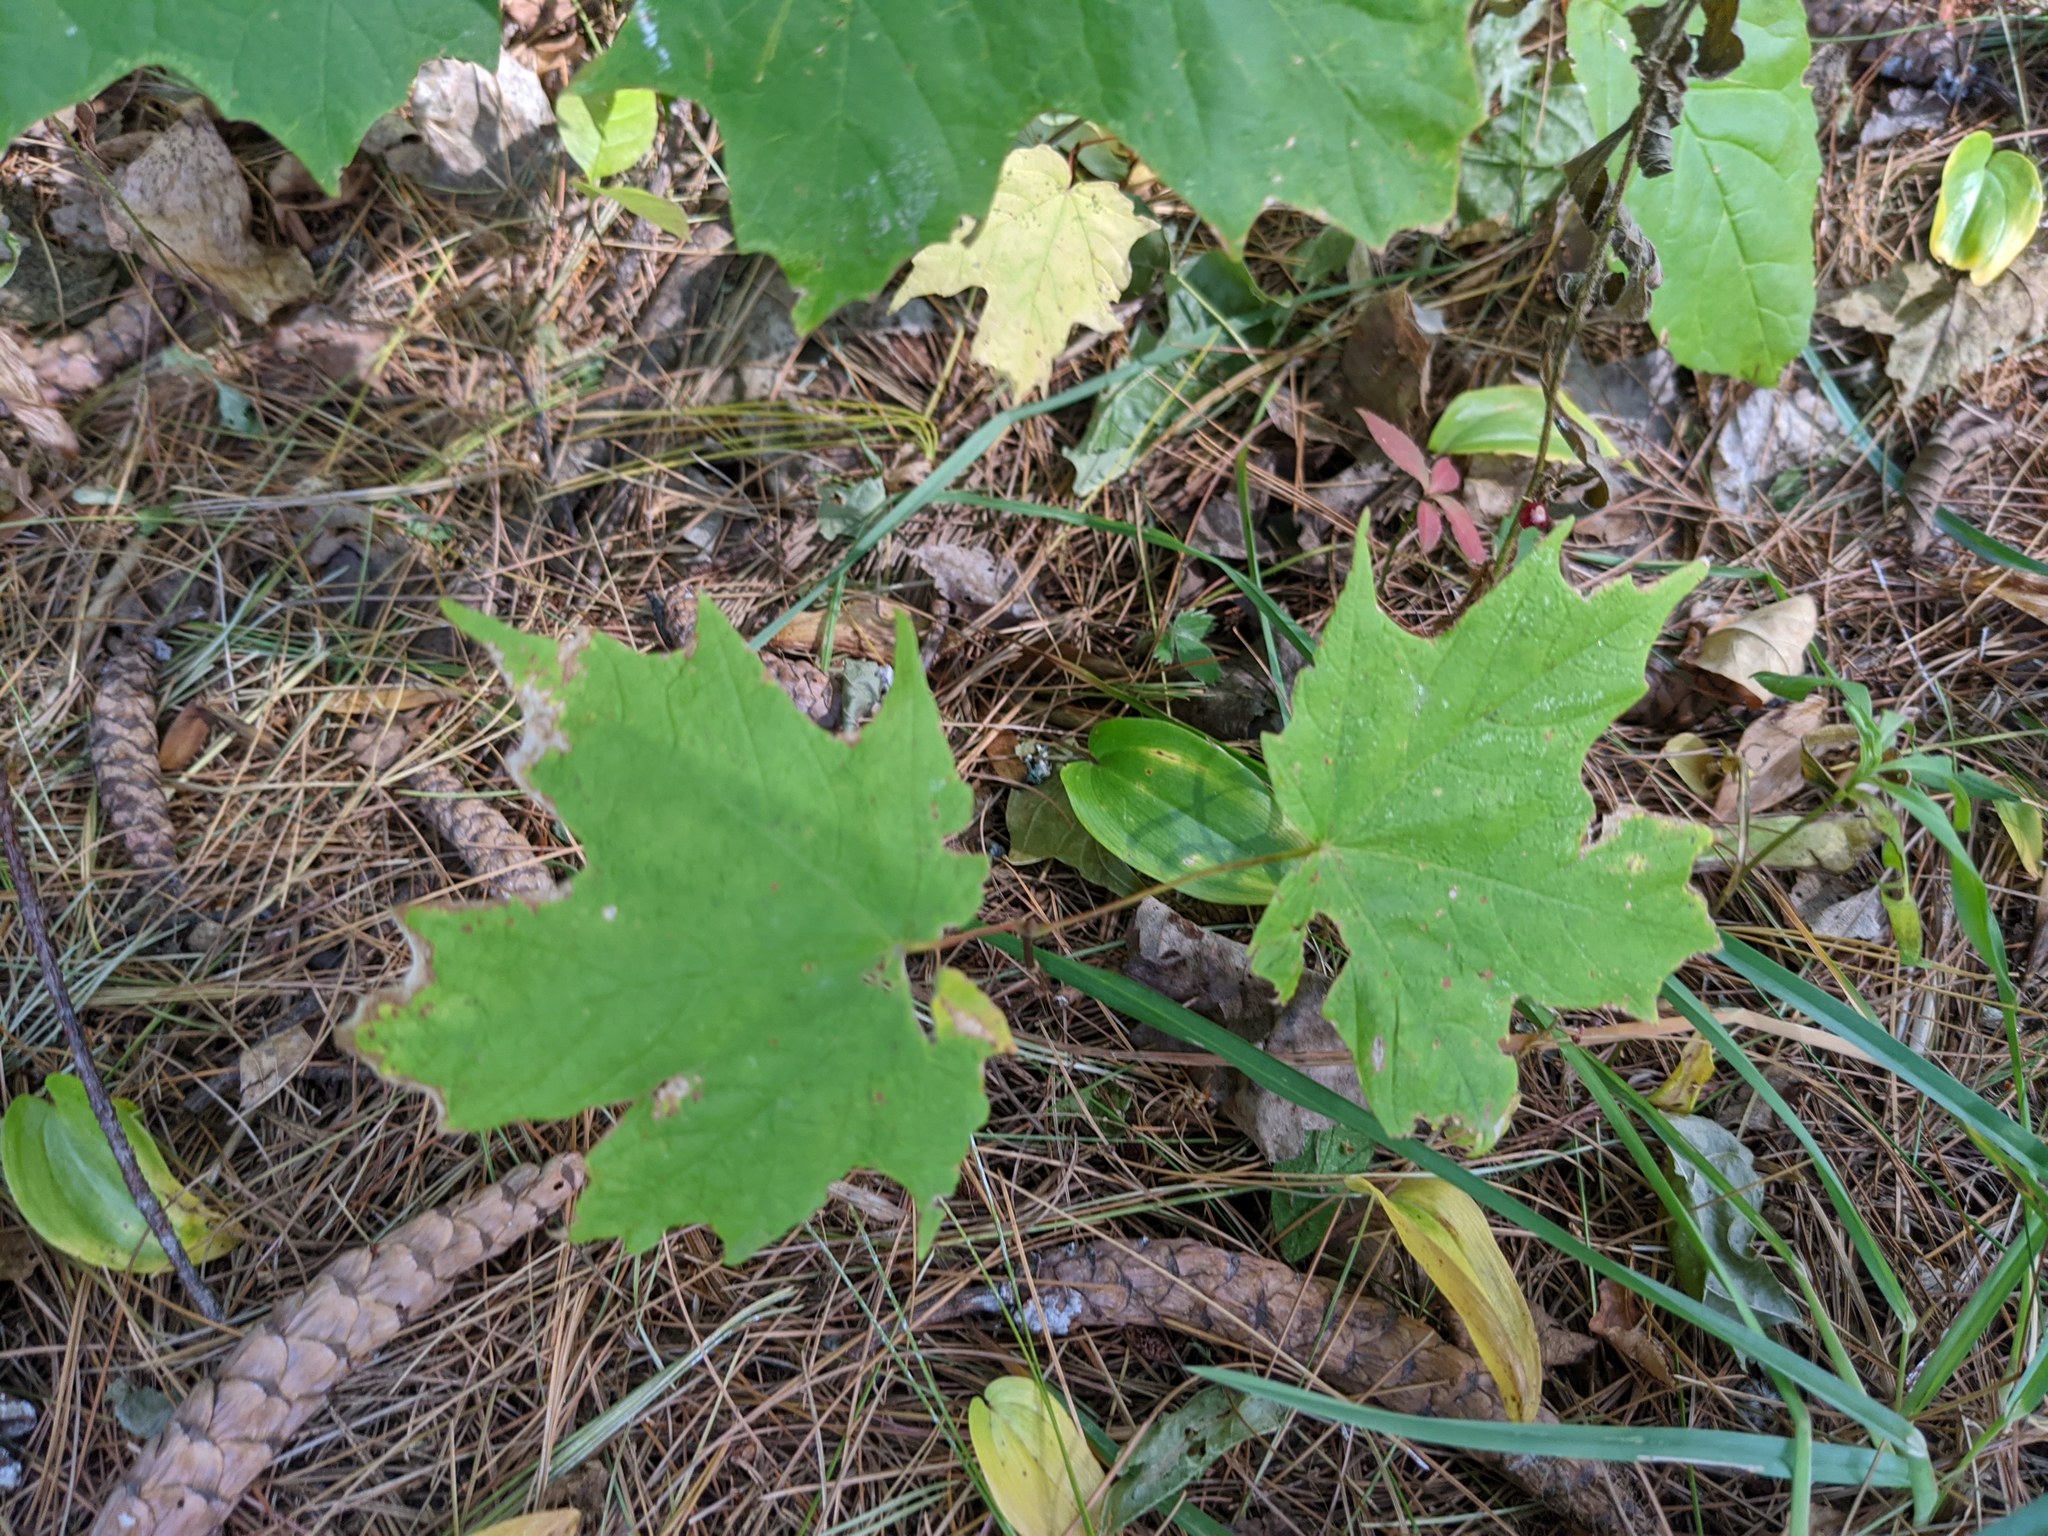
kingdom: Plantae
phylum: Tracheophyta
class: Magnoliopsida
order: Sapindales
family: Sapindaceae
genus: Acer
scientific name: Acer saccharum
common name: Sugar maple
